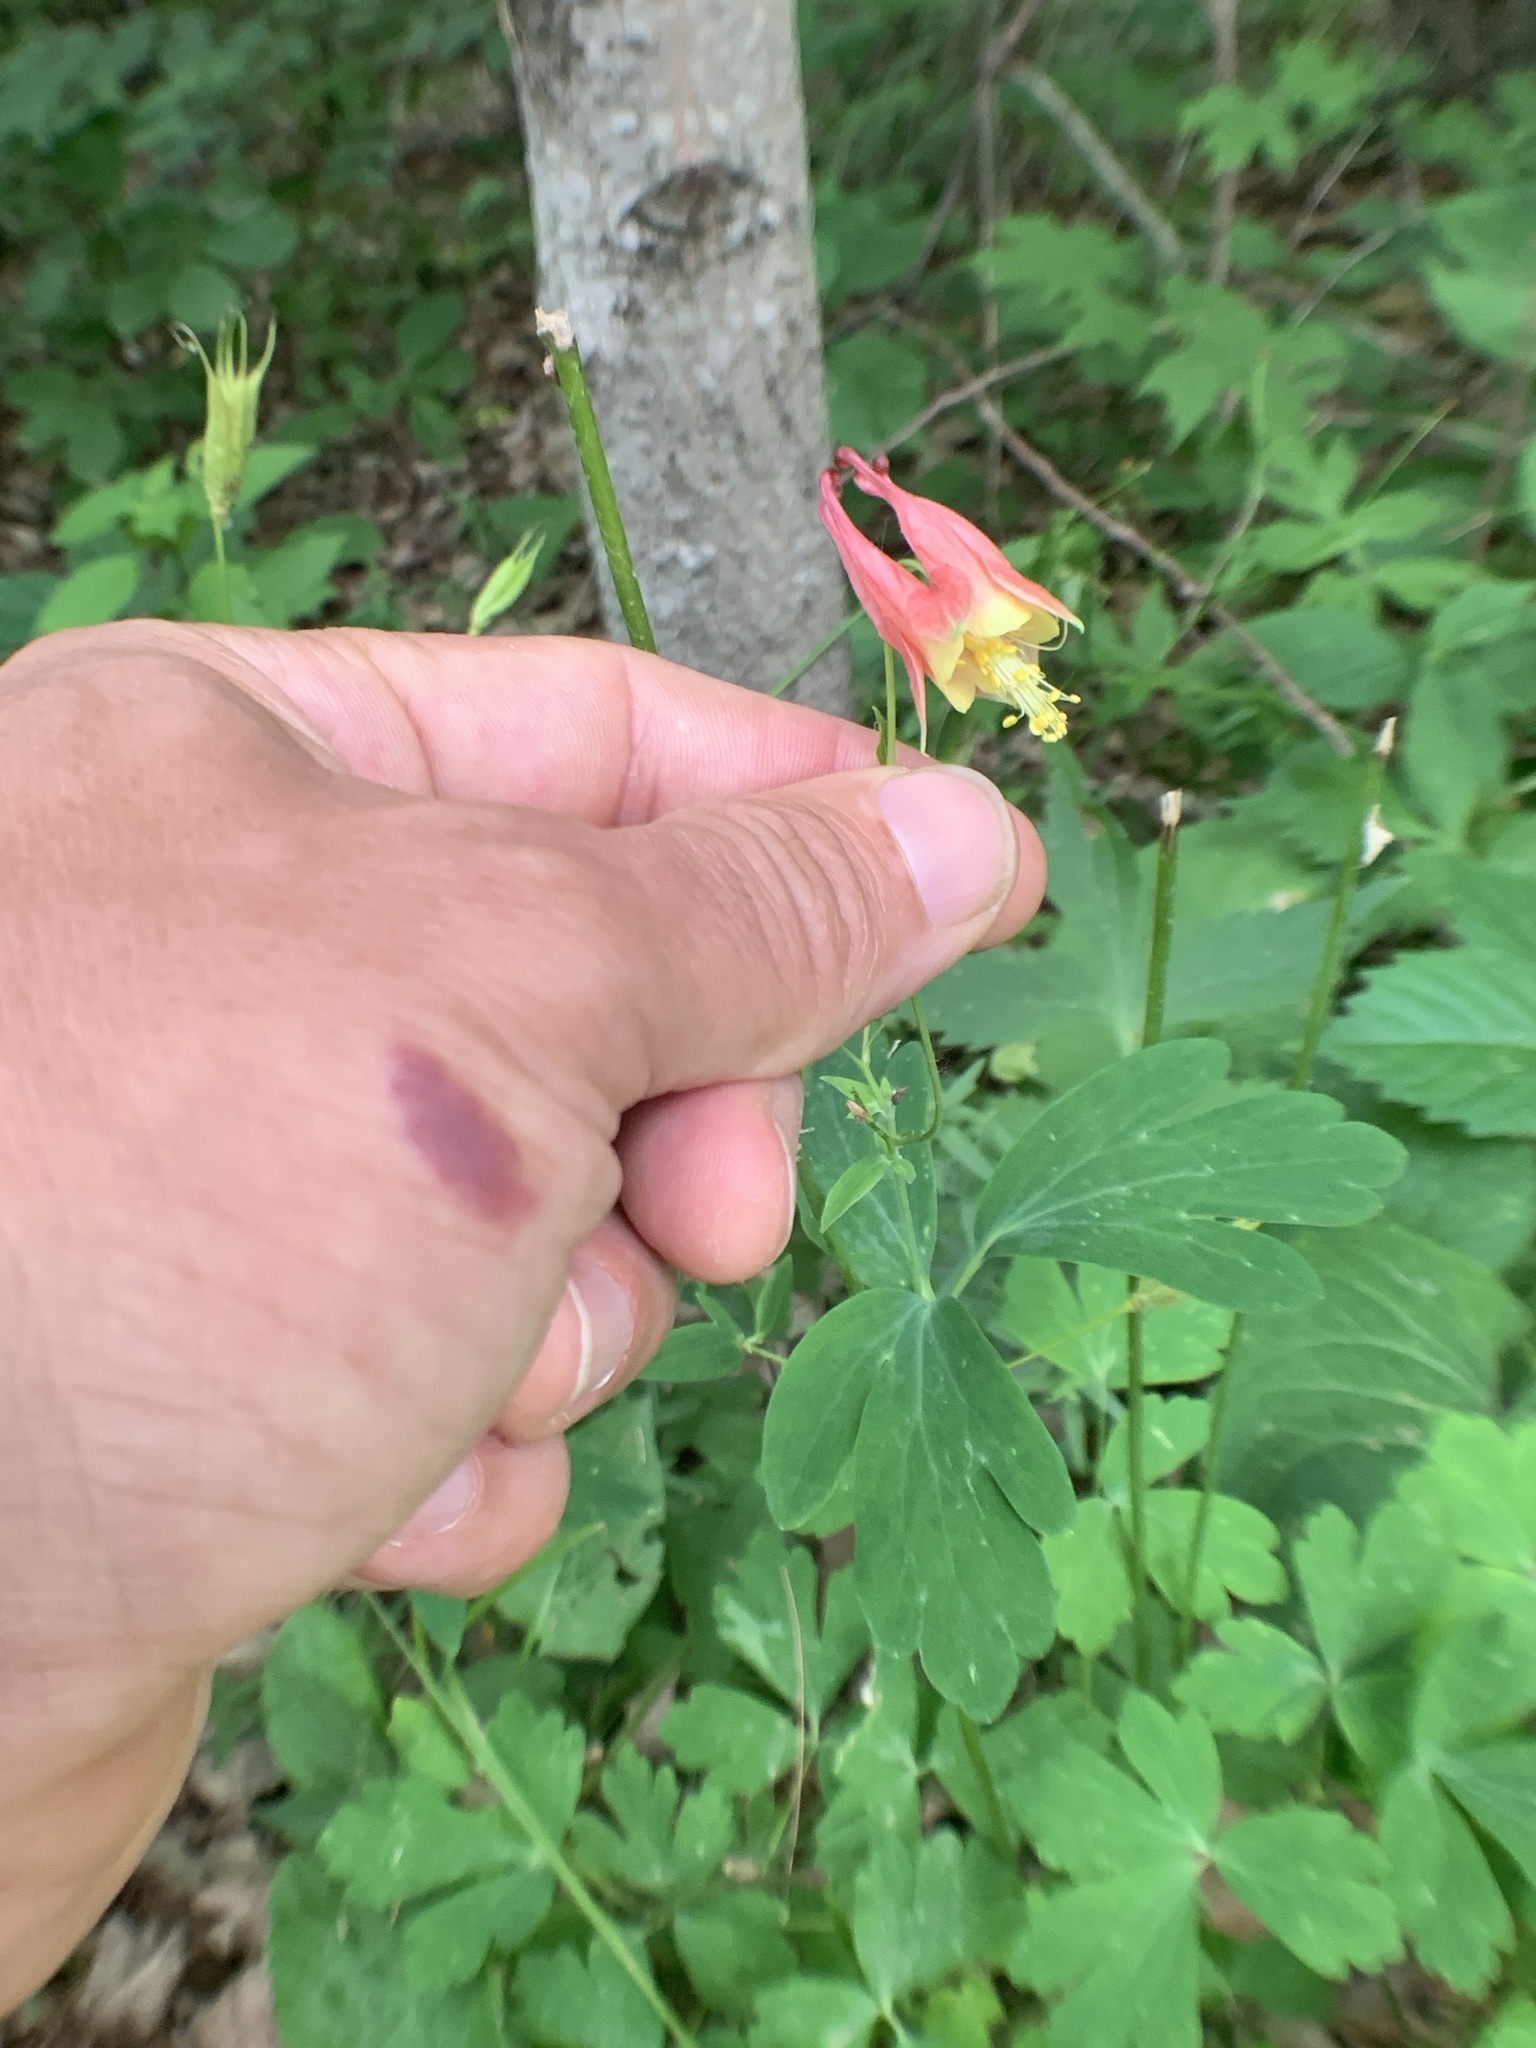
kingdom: Plantae
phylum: Tracheophyta
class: Magnoliopsida
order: Ranunculales
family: Ranunculaceae
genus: Aquilegia
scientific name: Aquilegia canadensis
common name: American columbine
